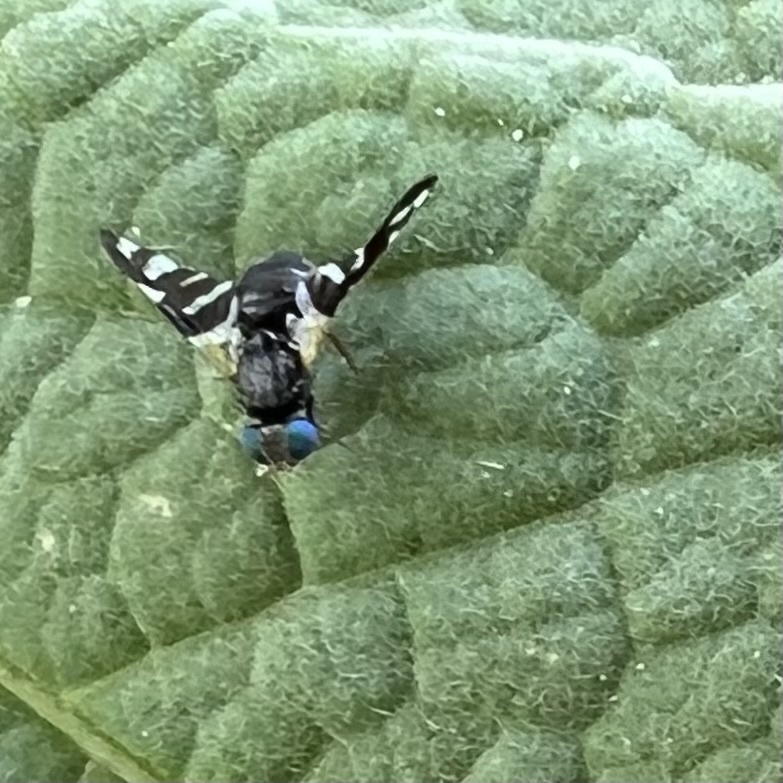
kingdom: Animalia
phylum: Arthropoda
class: Insecta
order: Diptera
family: Tephritidae
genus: Sphaeniscus
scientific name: Sphaeniscus atilius
